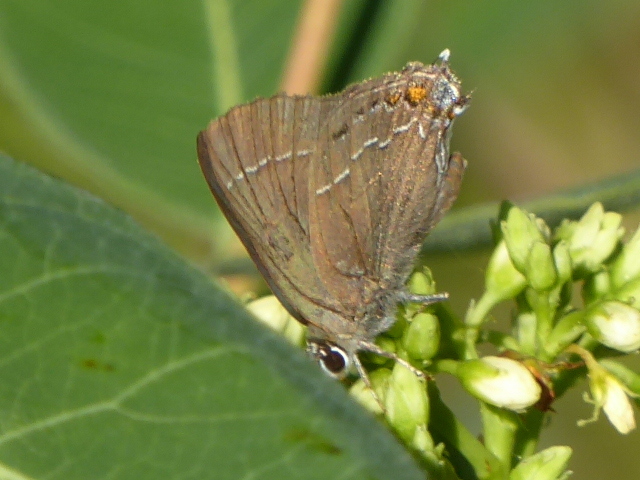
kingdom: Animalia
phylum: Arthropoda
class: Insecta
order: Lepidoptera
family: Lycaenidae
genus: Fixsenia
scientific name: Fixsenia favonius
